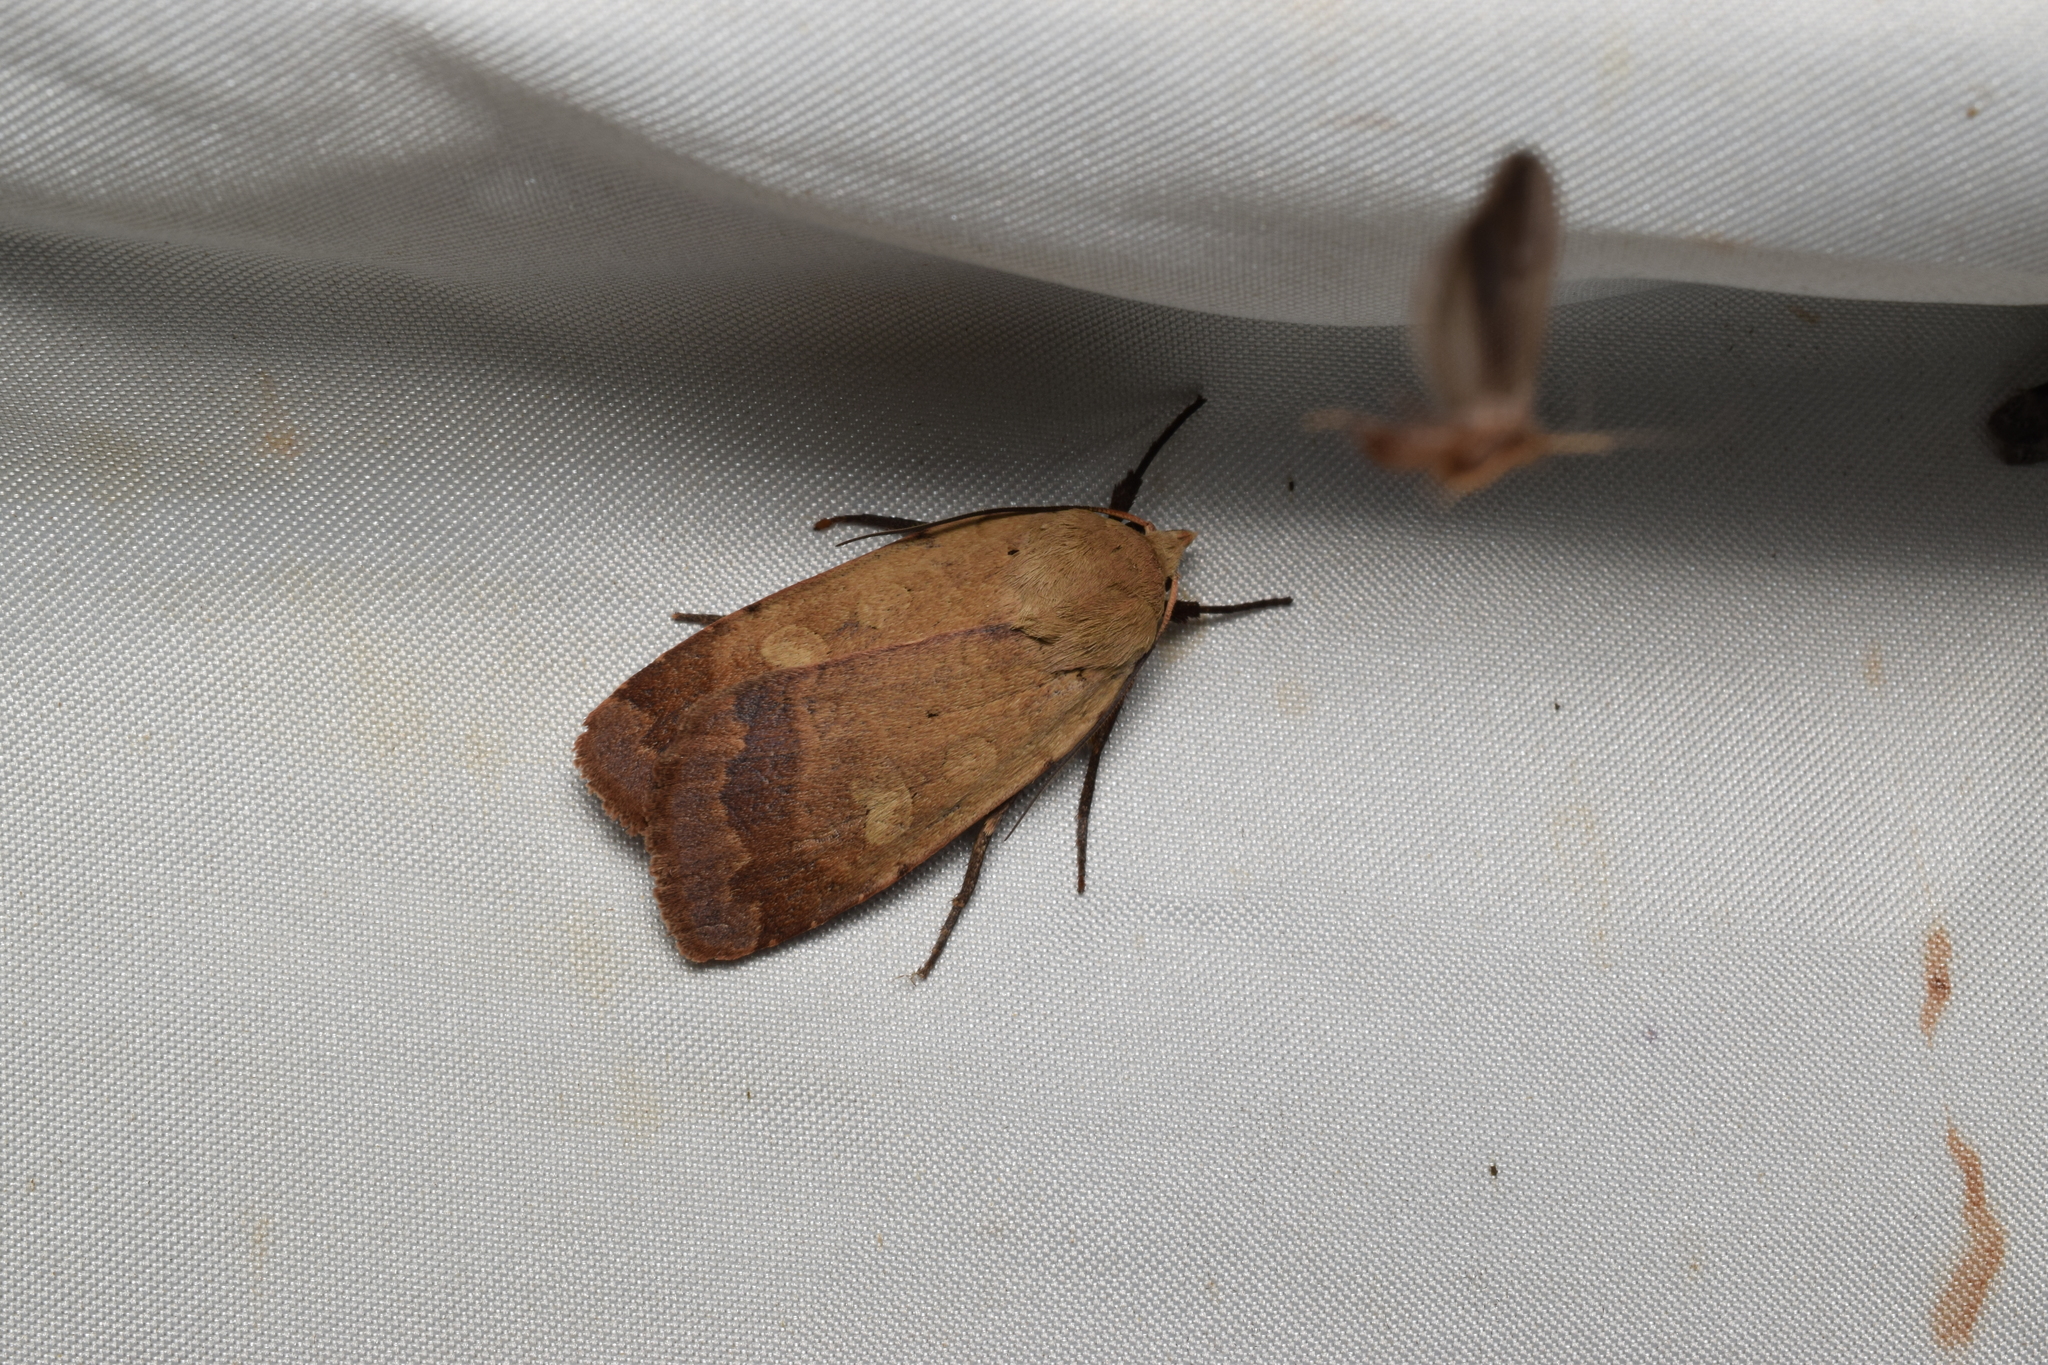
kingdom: Animalia
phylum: Arthropoda
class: Insecta
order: Lepidoptera
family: Noctuidae
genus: Sineugraphe
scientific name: Sineugraphe exusta
